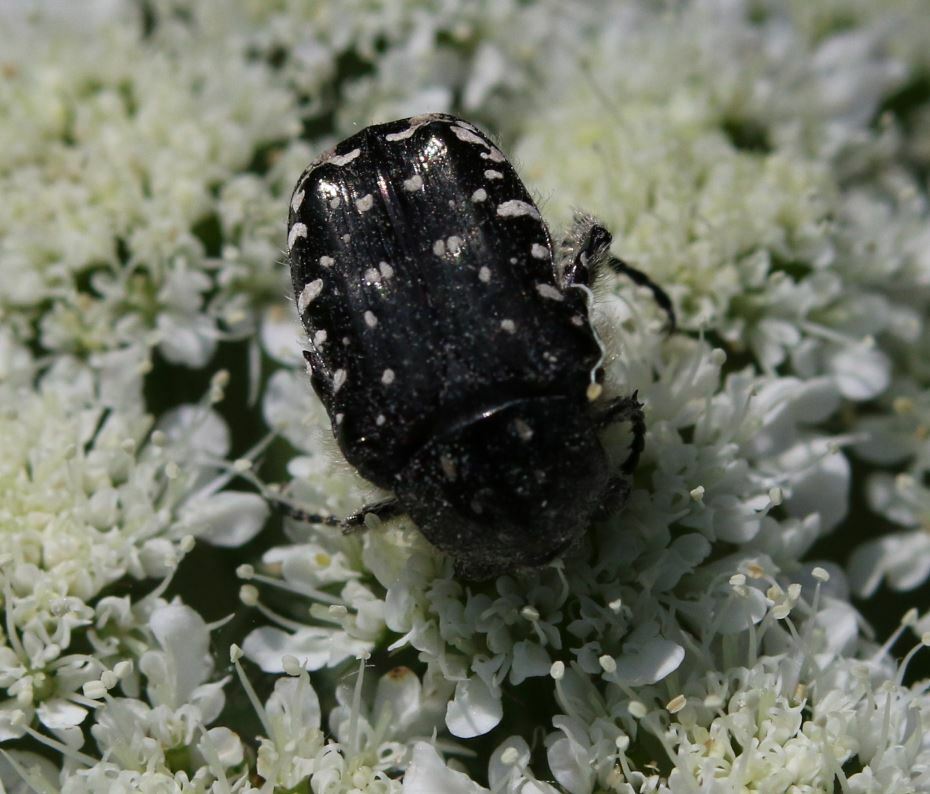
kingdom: Animalia
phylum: Arthropoda
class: Insecta
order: Coleoptera
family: Scarabaeidae
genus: Oxythyrea
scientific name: Oxythyrea funesta
